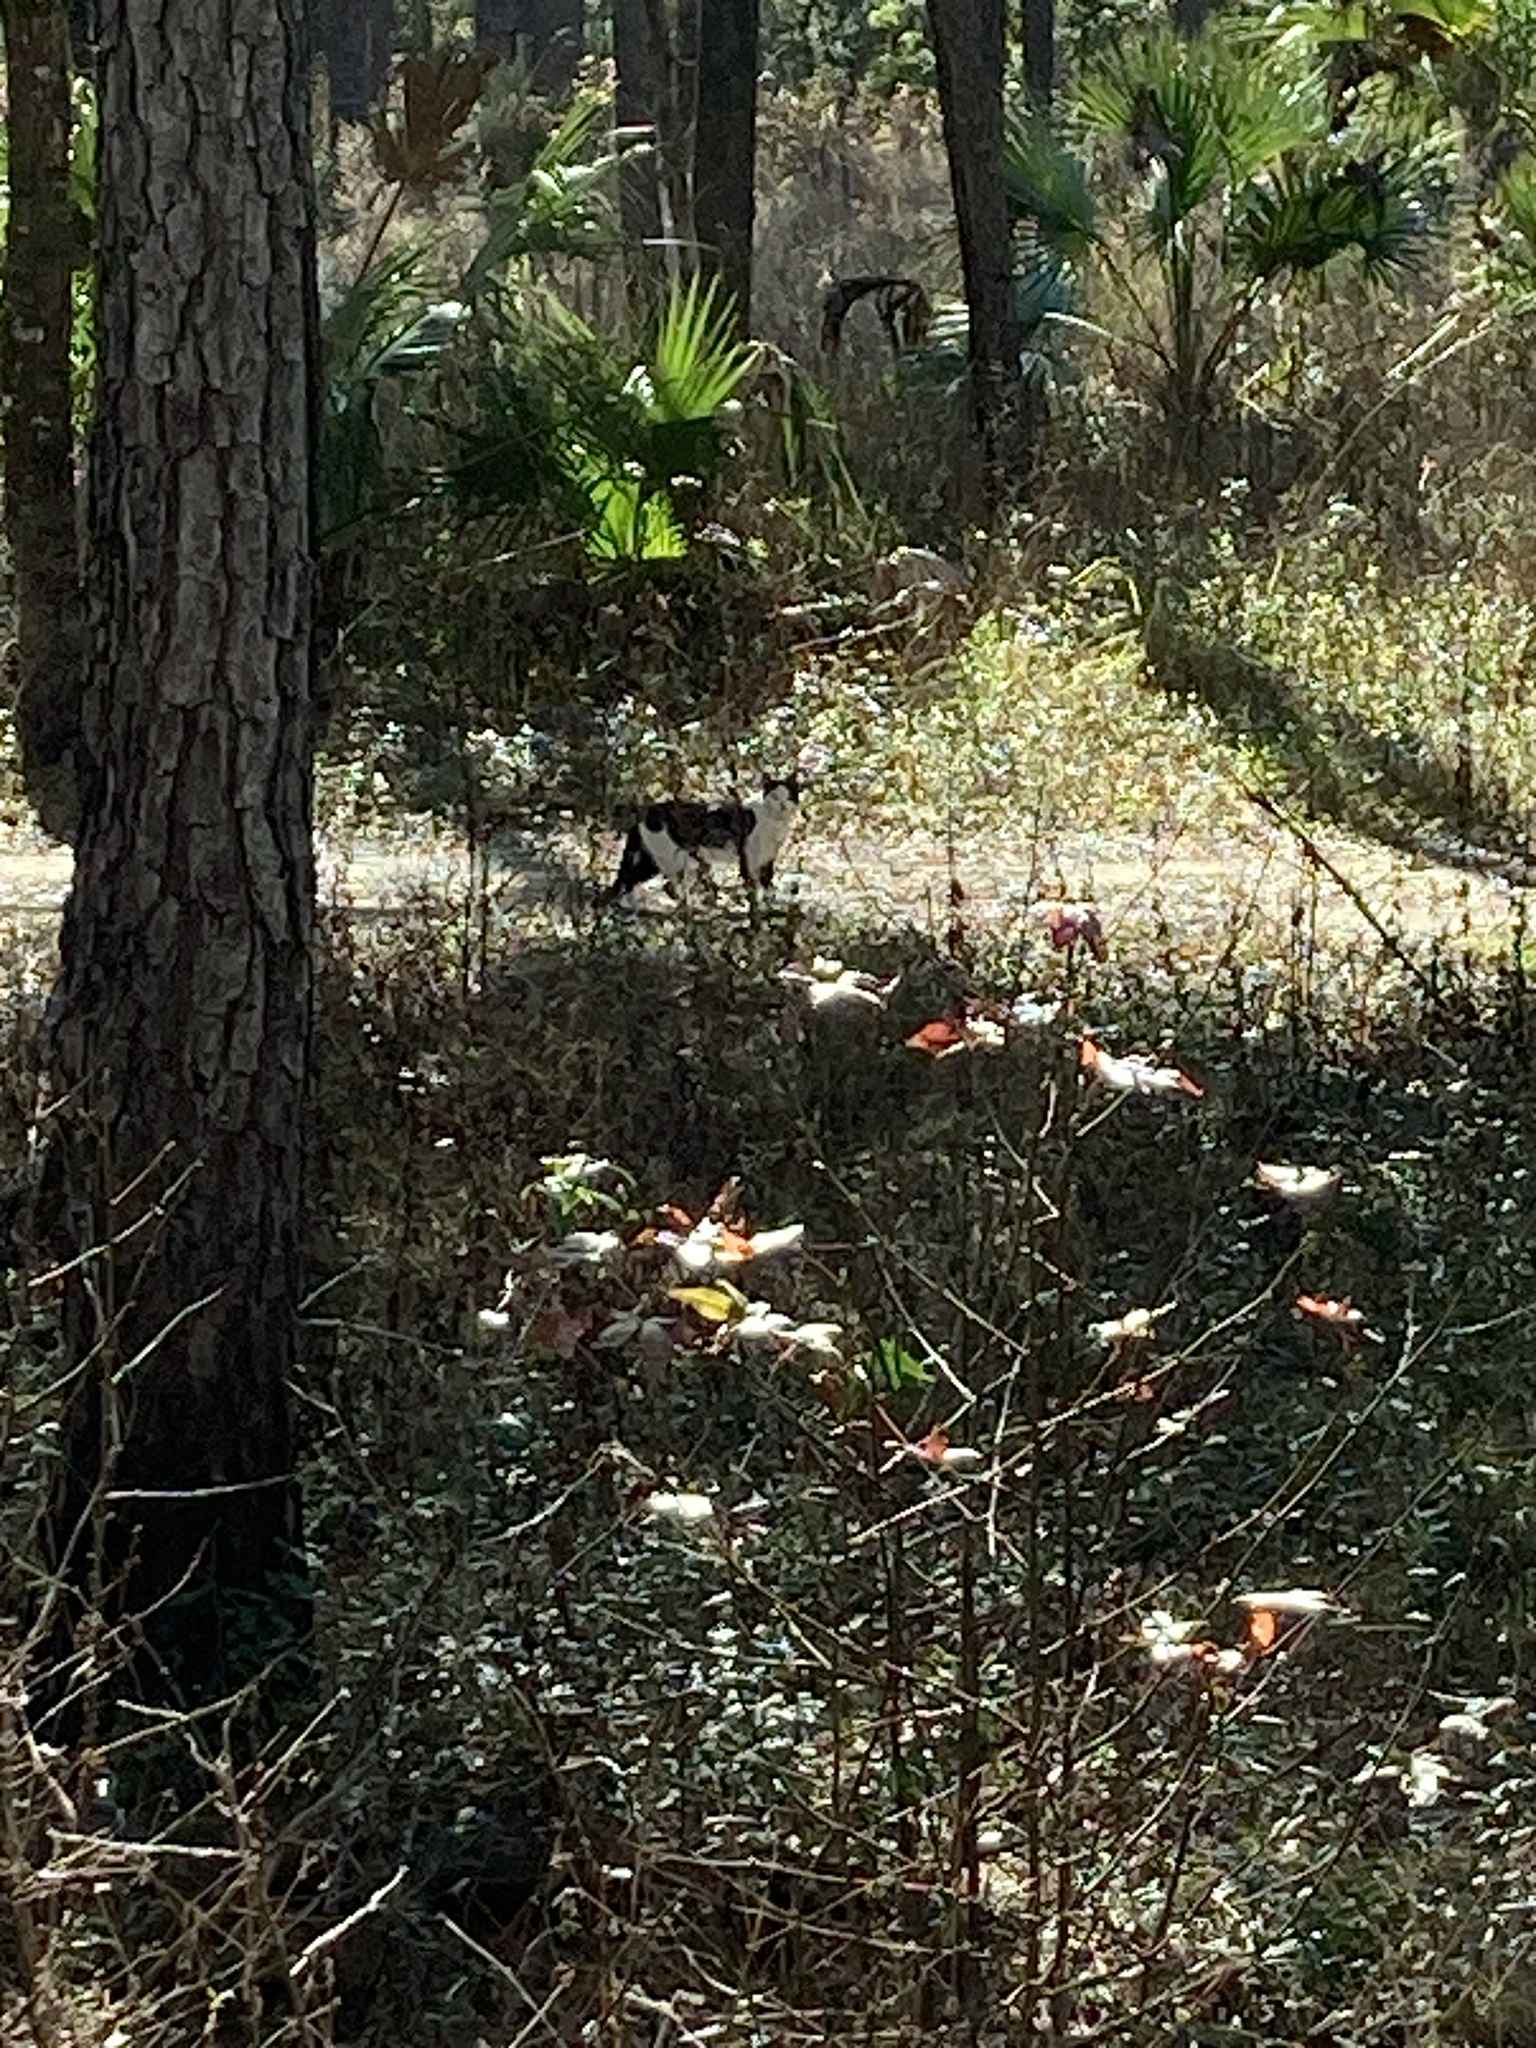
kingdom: Animalia
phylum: Chordata
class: Mammalia
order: Carnivora
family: Felidae
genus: Felis
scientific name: Felis catus
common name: Domestic cat
